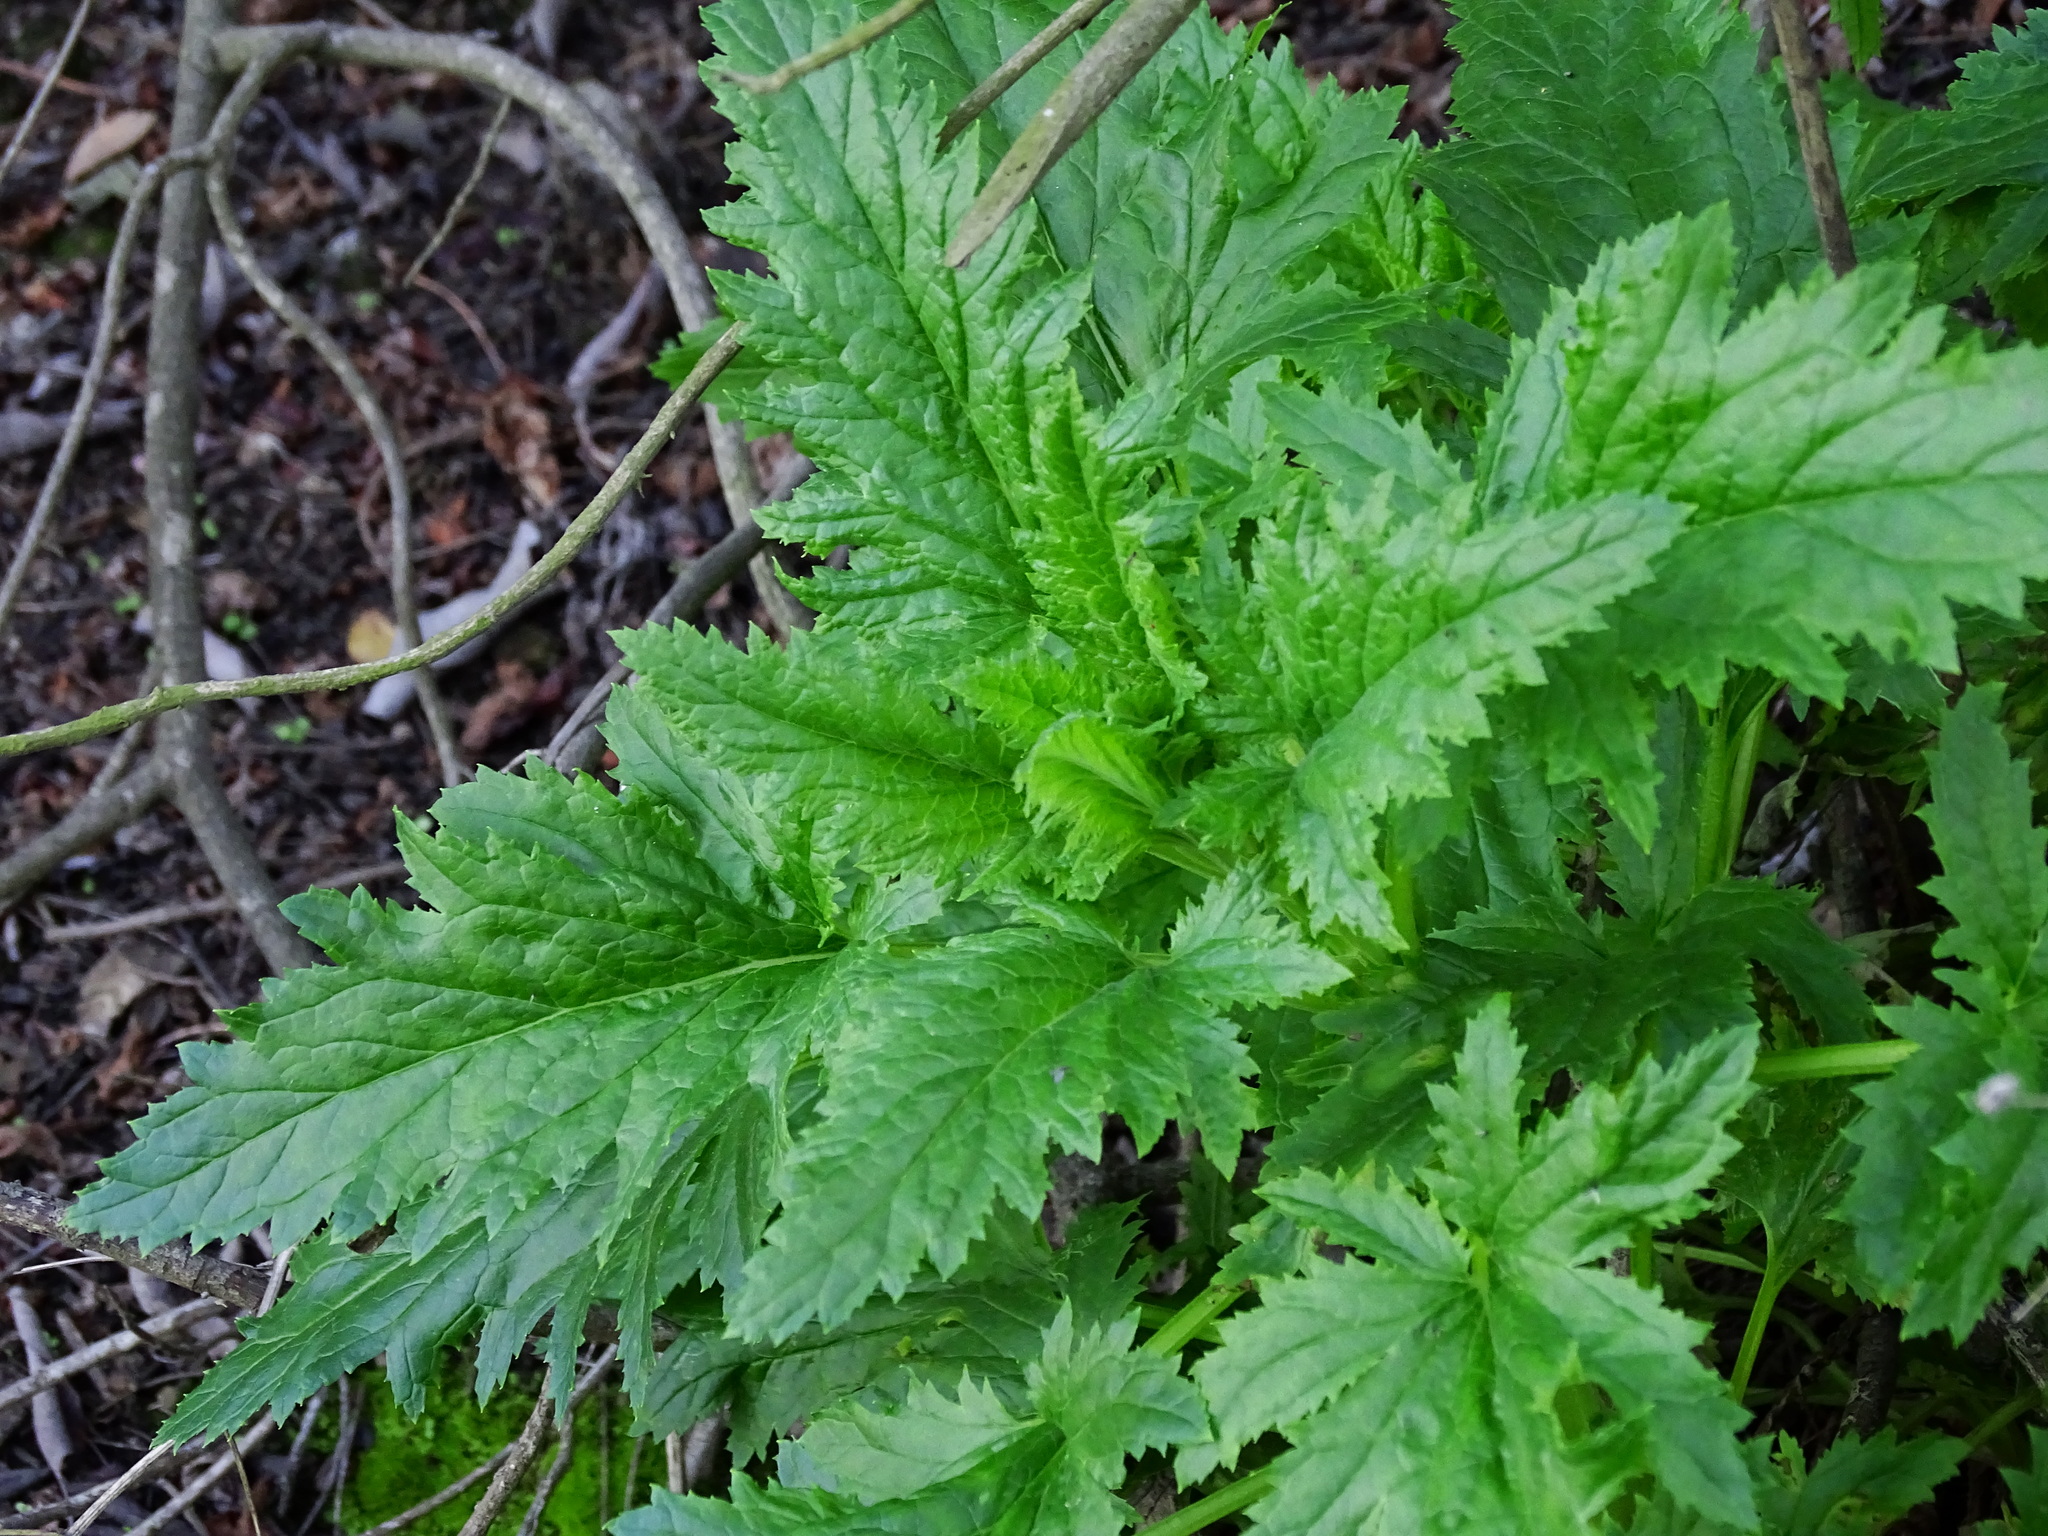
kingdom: Plantae
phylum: Tracheophyta
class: Magnoliopsida
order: Lamiales
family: Scrophulariaceae
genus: Scrophularia
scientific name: Scrophularia californica
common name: California figwort
